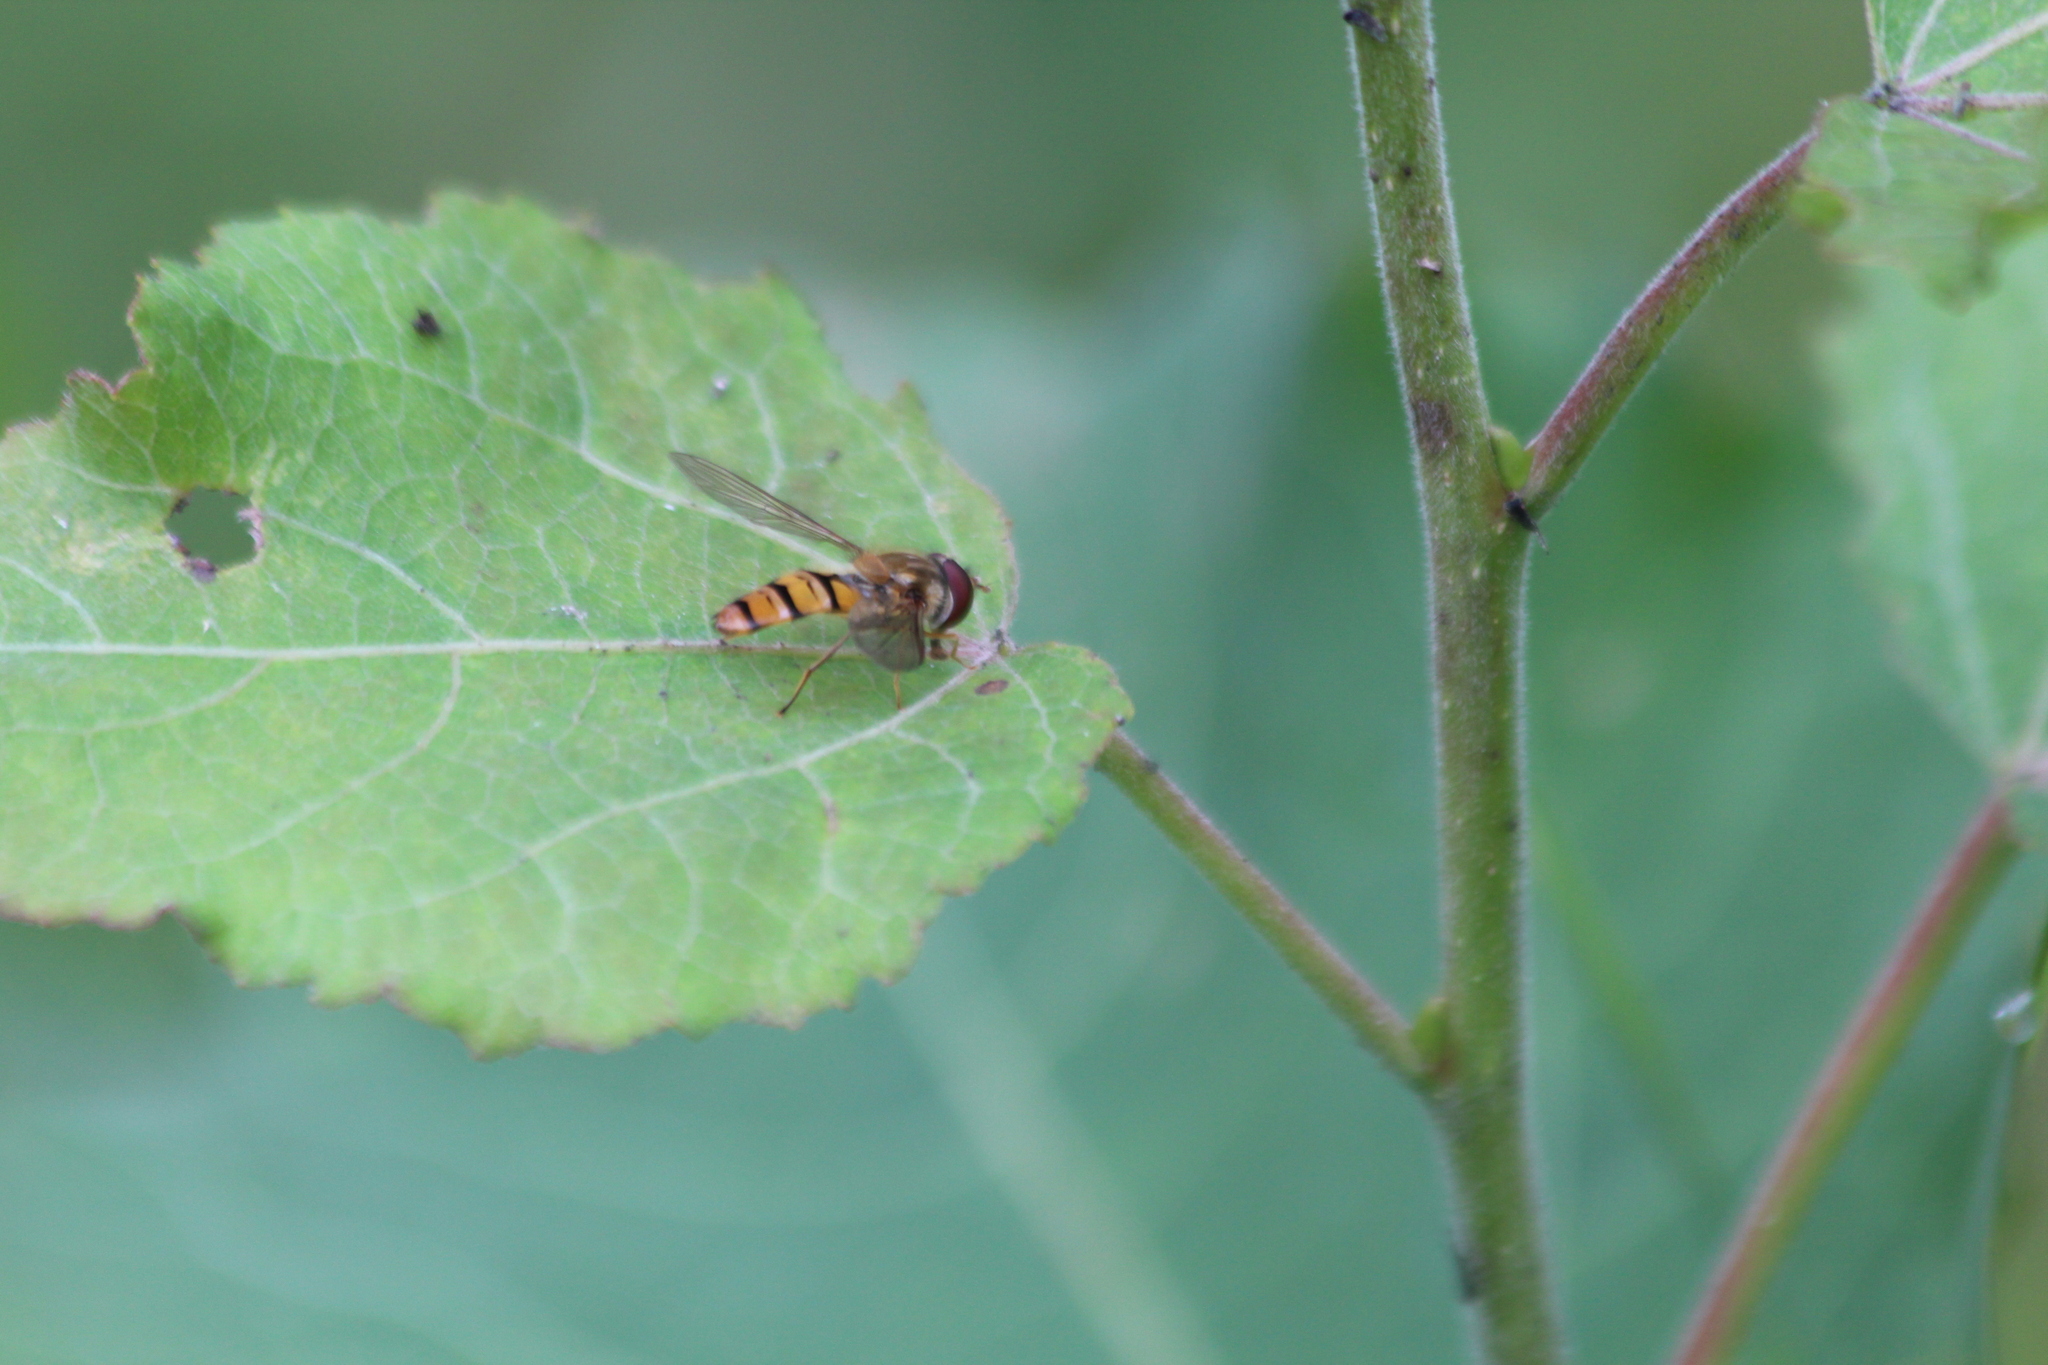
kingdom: Animalia
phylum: Arthropoda
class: Insecta
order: Diptera
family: Syrphidae
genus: Episyrphus
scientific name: Episyrphus balteatus
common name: Marmalade hoverfly
